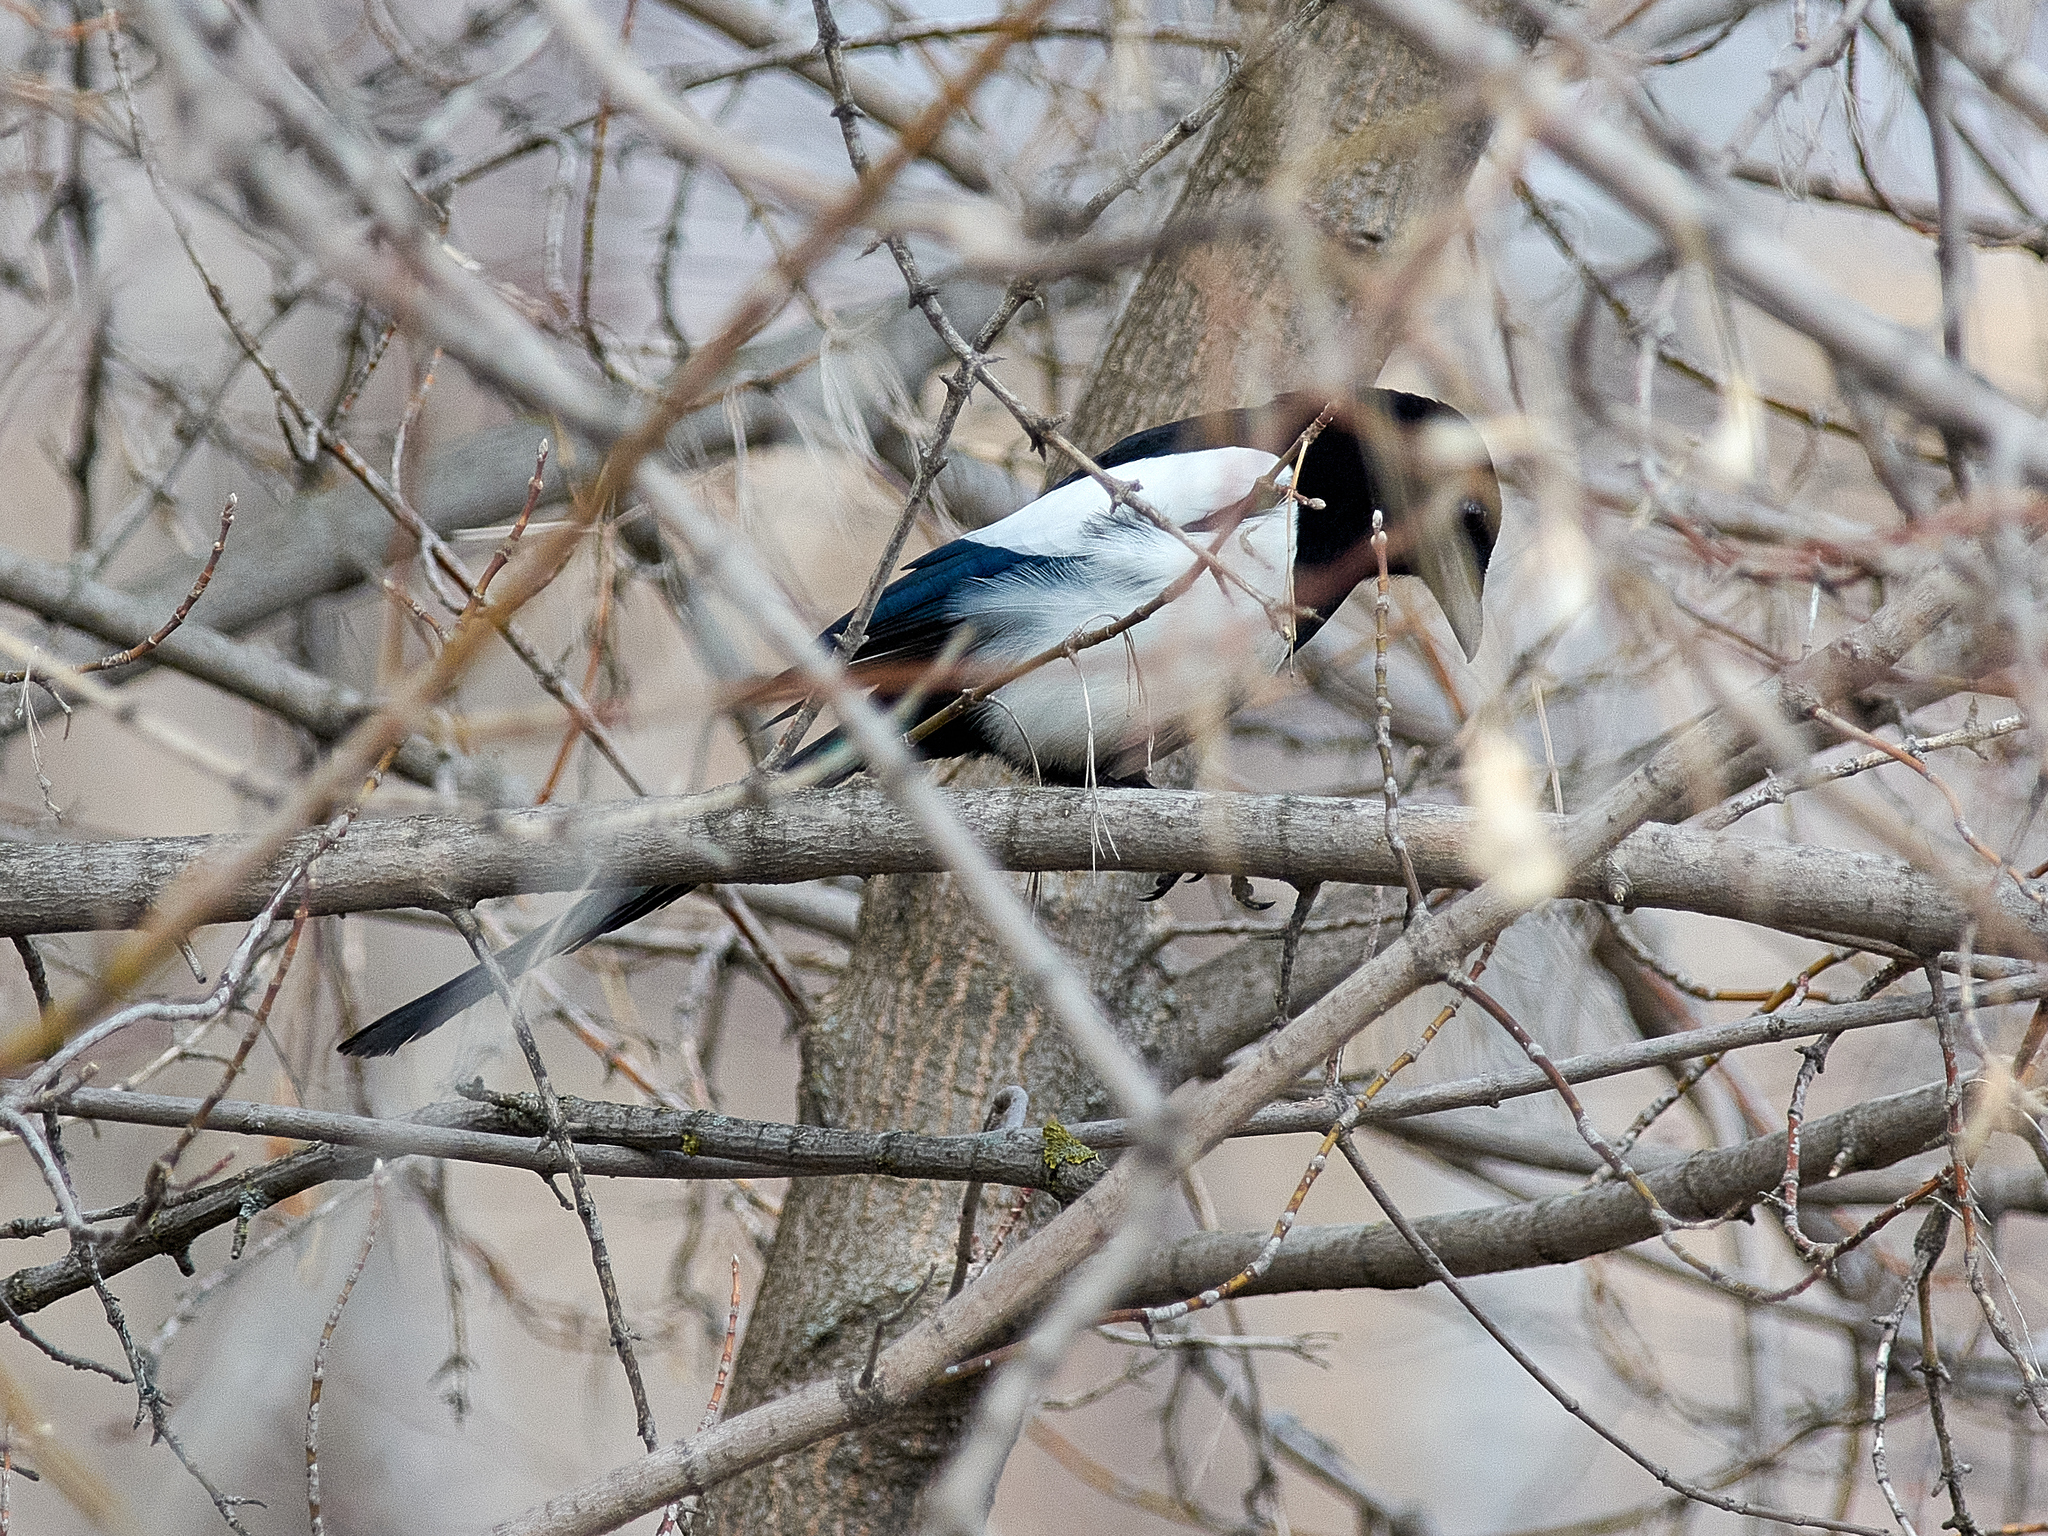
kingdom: Animalia
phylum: Chordata
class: Aves
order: Passeriformes
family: Corvidae
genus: Pica
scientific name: Pica pica
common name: Eurasian magpie
